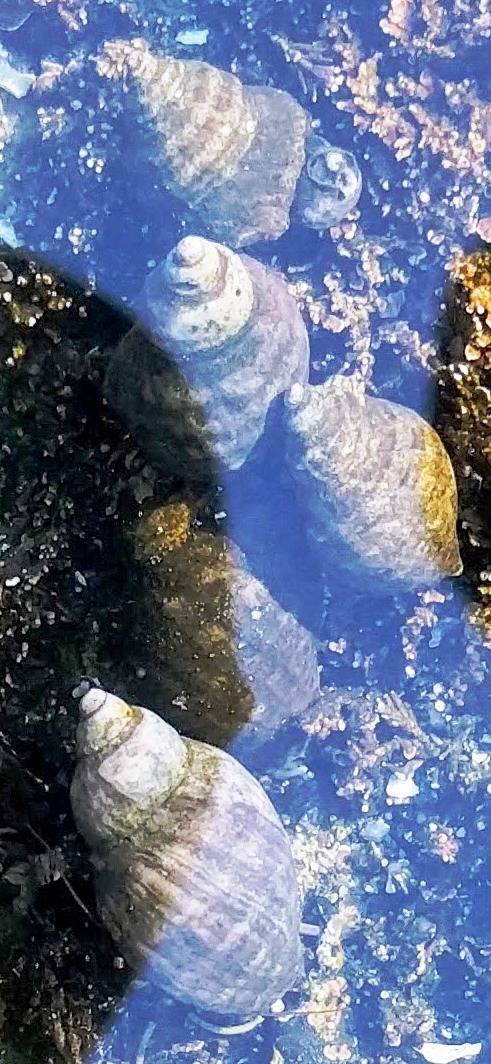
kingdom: Animalia
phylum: Mollusca
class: Gastropoda
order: Neogastropoda
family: Muricidae
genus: Nucella
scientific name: Nucella ostrina
